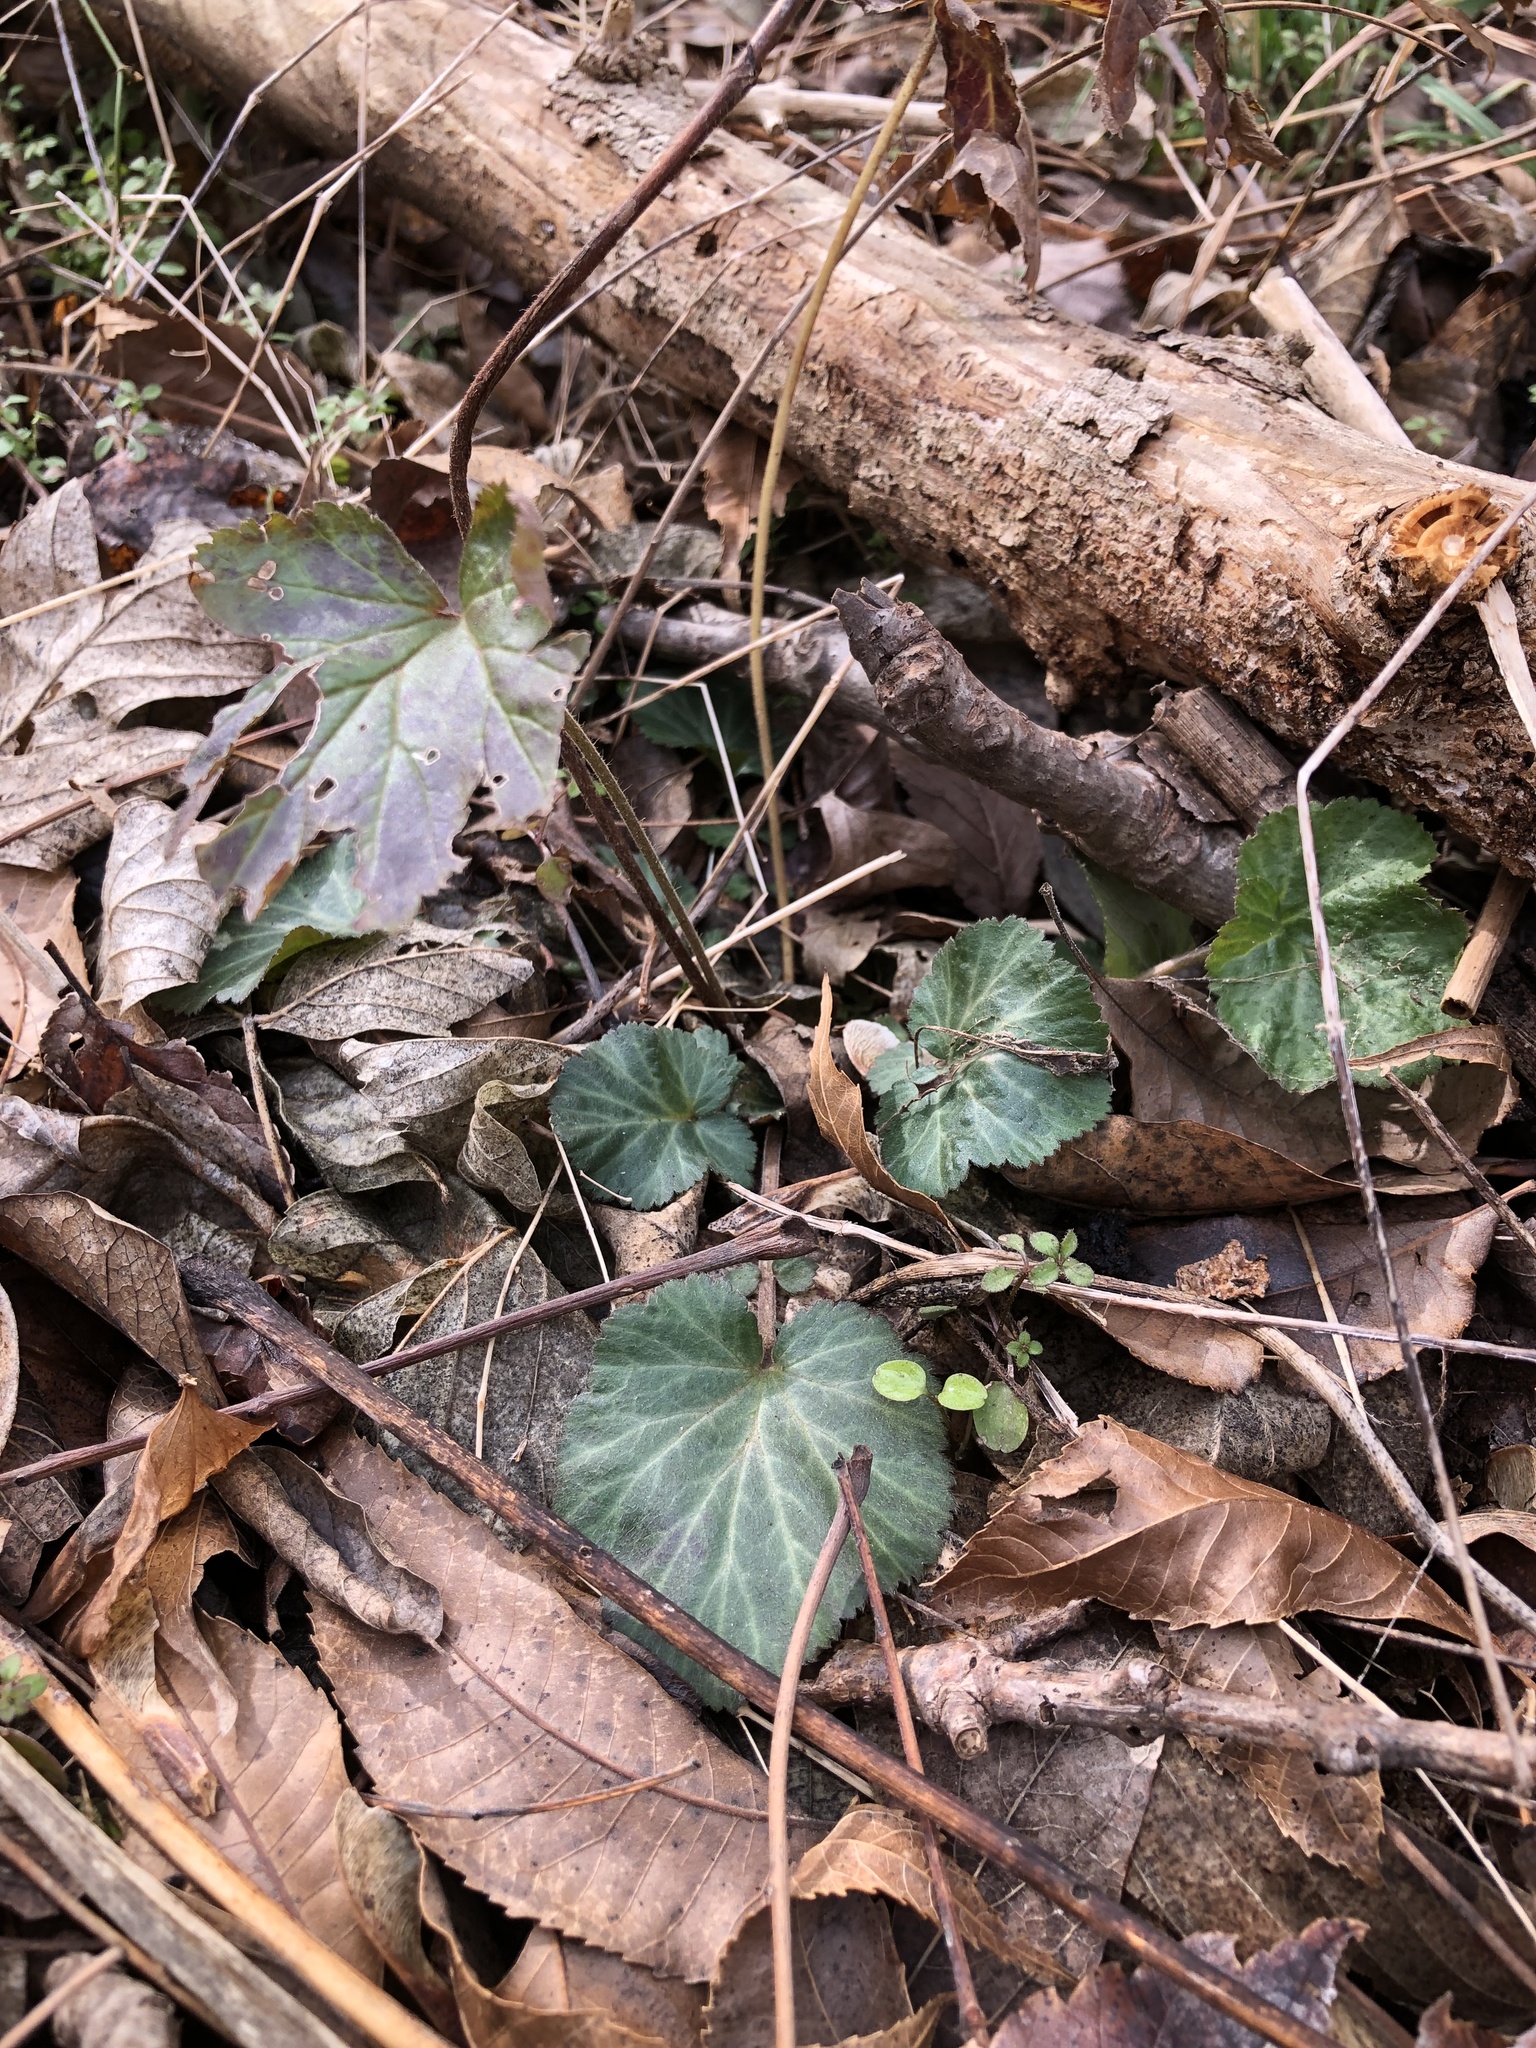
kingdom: Plantae
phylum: Tracheophyta
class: Magnoliopsida
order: Rosales
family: Rosaceae
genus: Geum
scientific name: Geum canadense
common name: White avens
